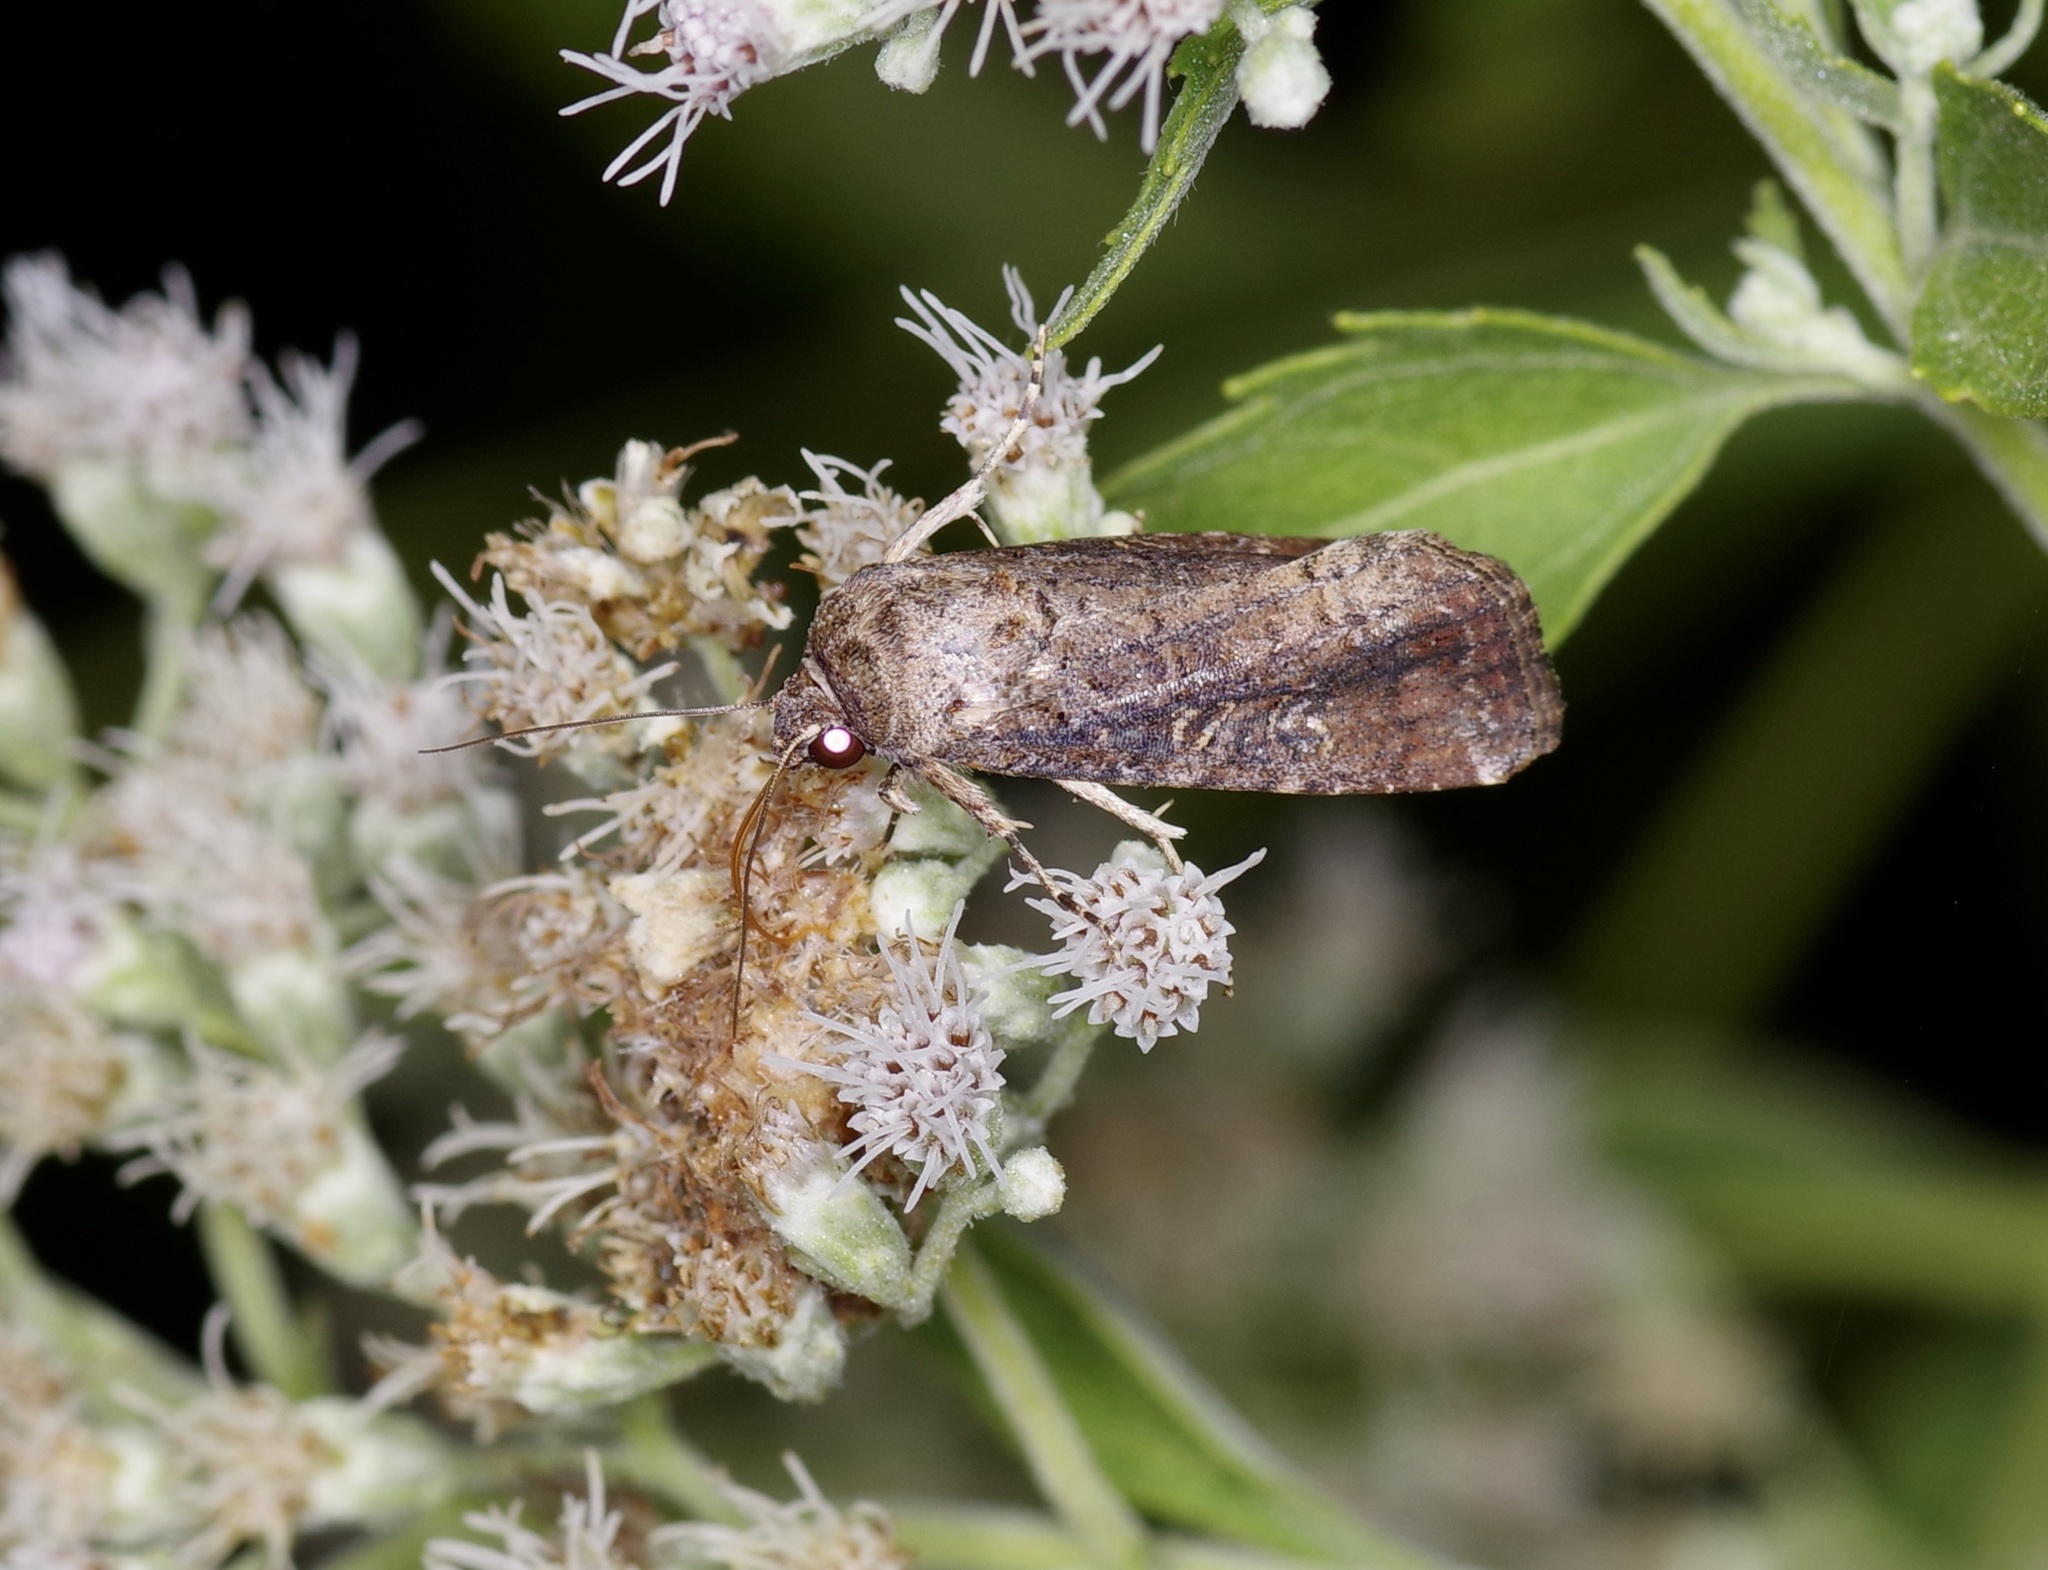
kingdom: Animalia
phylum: Arthropoda
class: Insecta
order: Lepidoptera
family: Noctuidae
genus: Spodoptera
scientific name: Spodoptera frugiperda
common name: Fall armyworm
